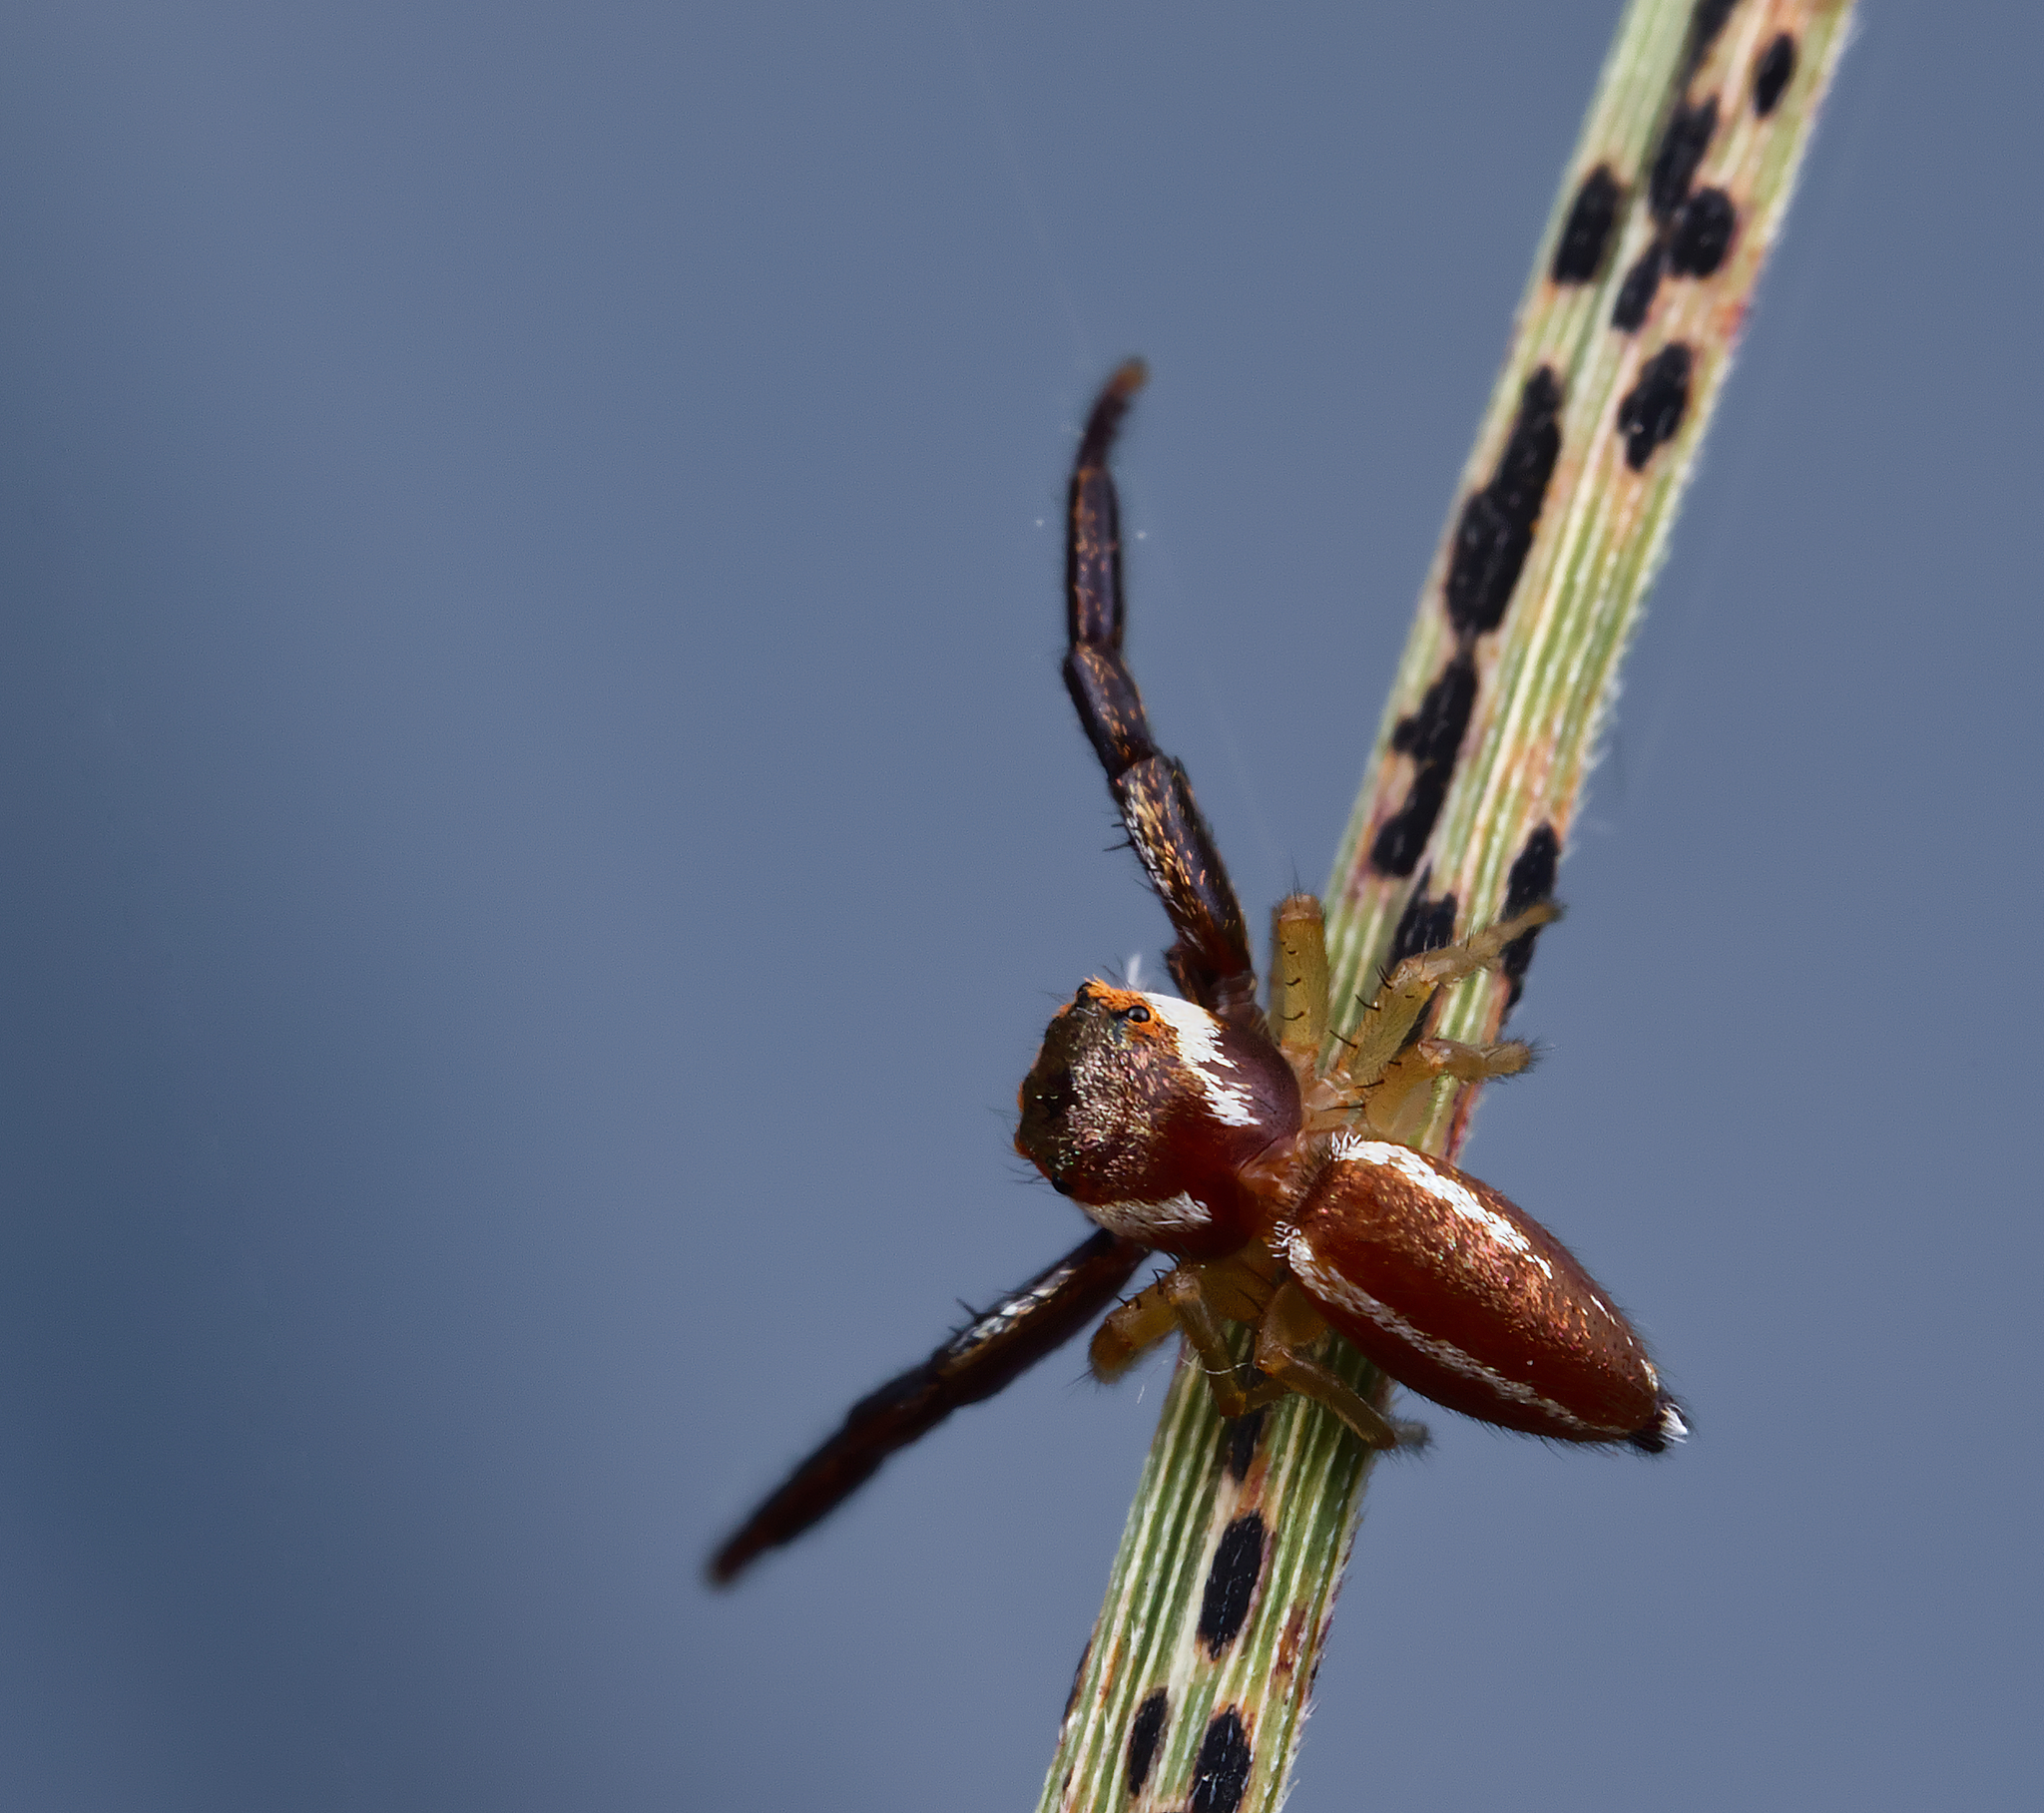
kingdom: Animalia
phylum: Arthropoda
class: Arachnida
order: Araneae
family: Salticidae
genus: Hentzia
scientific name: Hentzia palmarum
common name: Common hentz jumping spider
